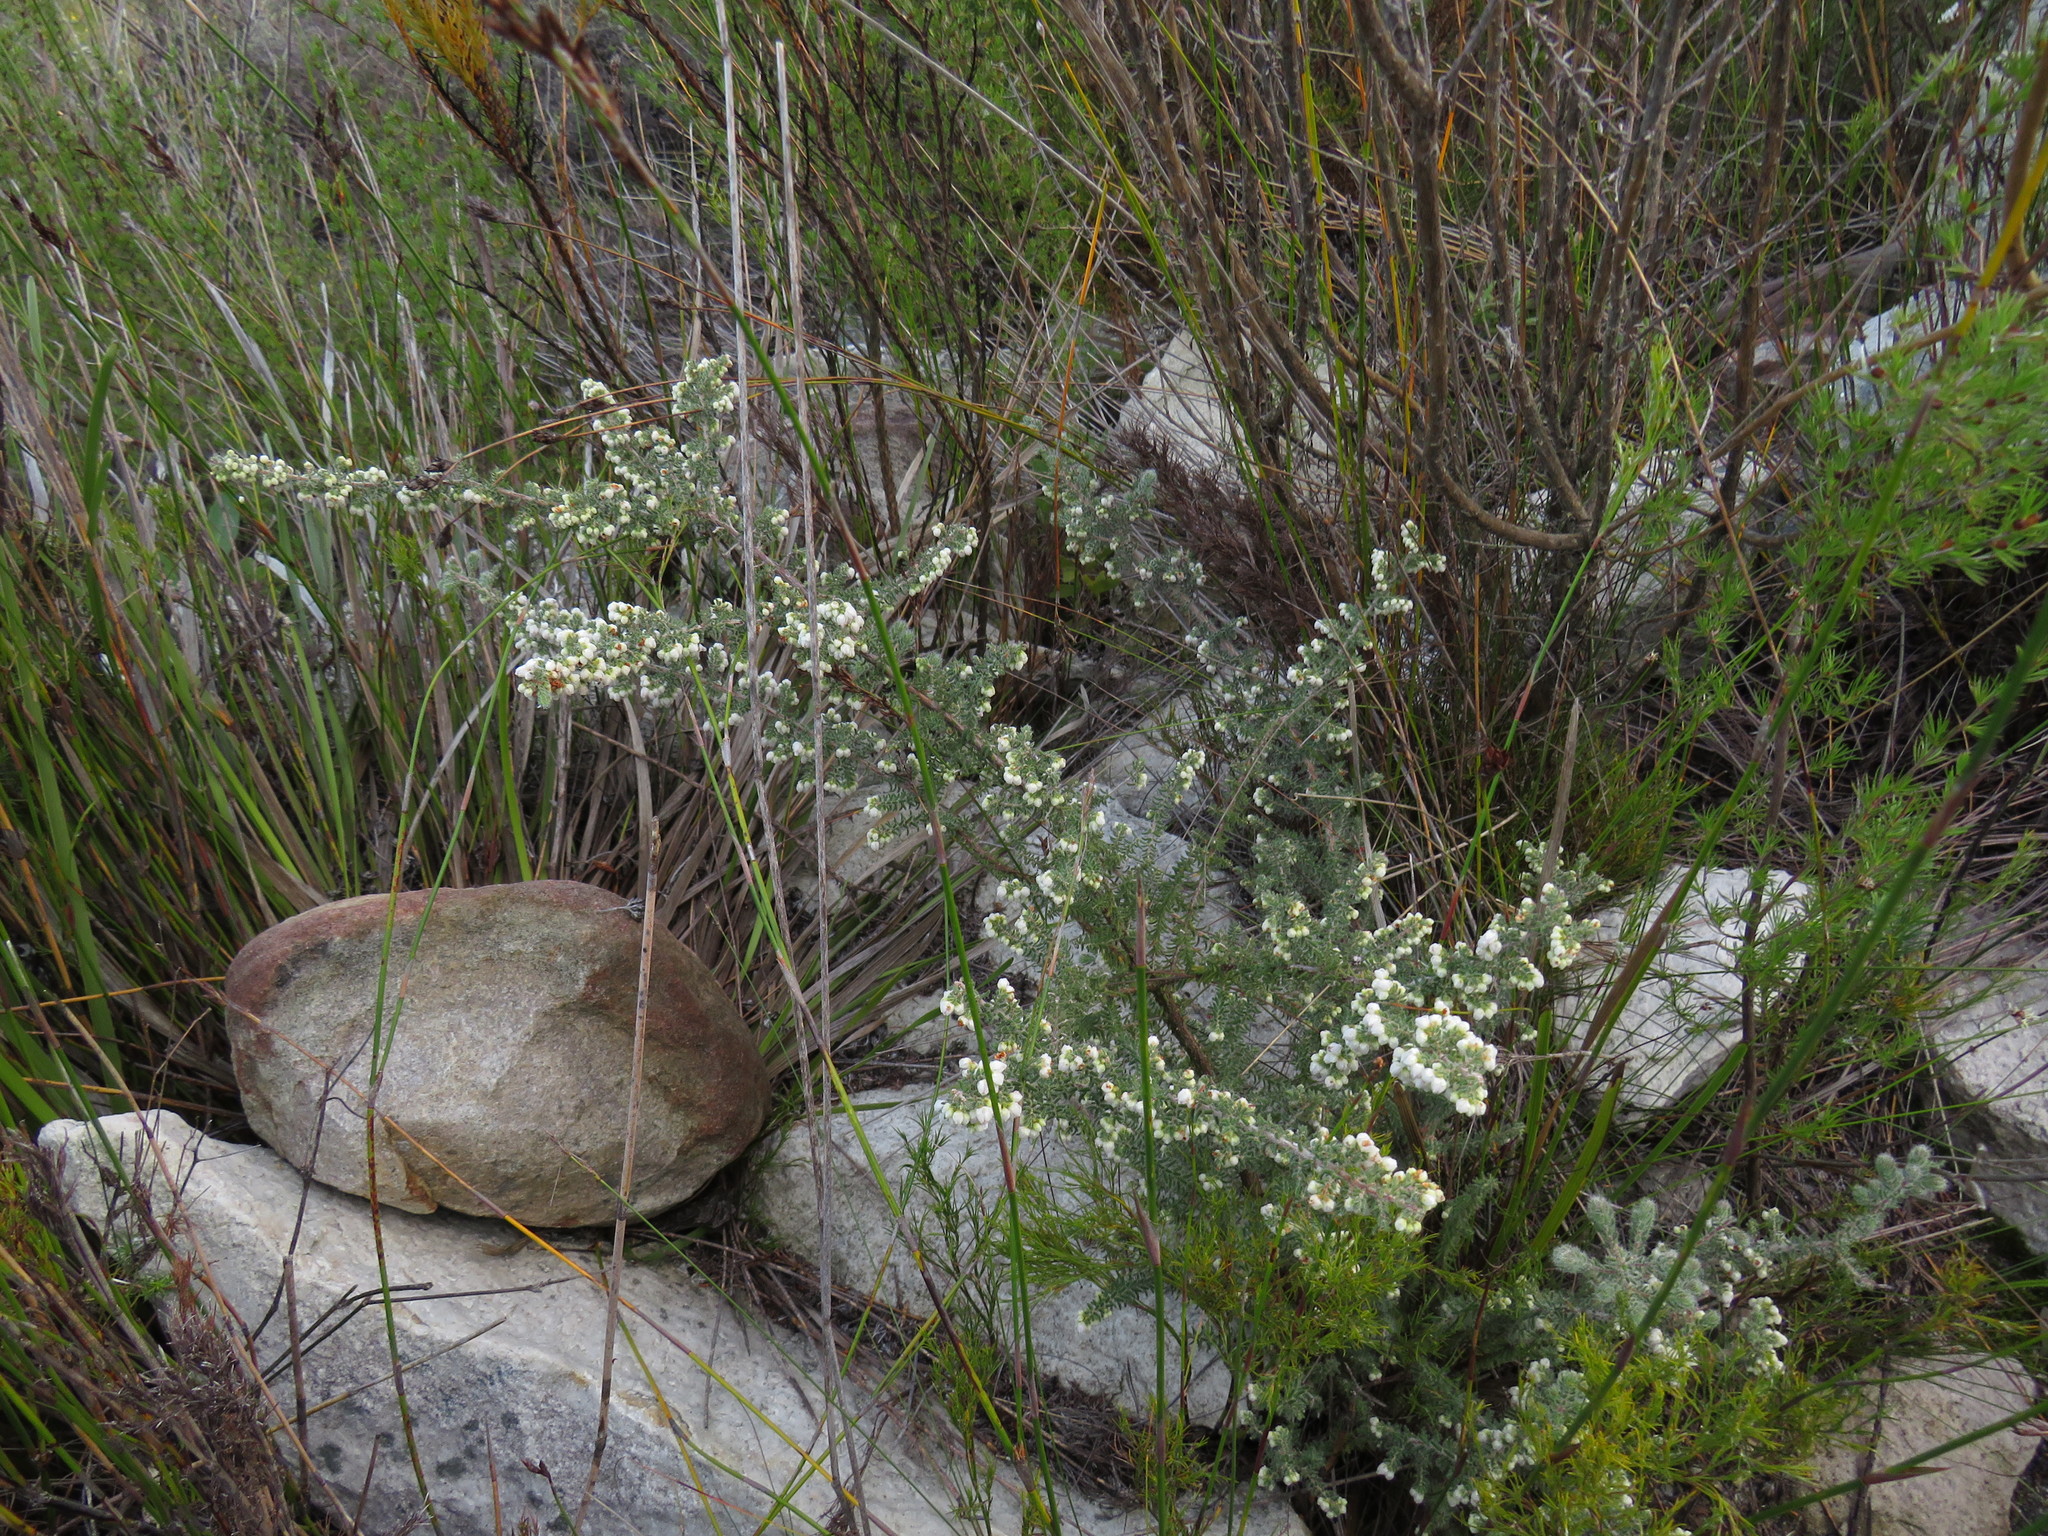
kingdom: Plantae
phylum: Tracheophyta
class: Magnoliopsida
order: Ericales
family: Ericaceae
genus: Erica
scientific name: Erica totta
